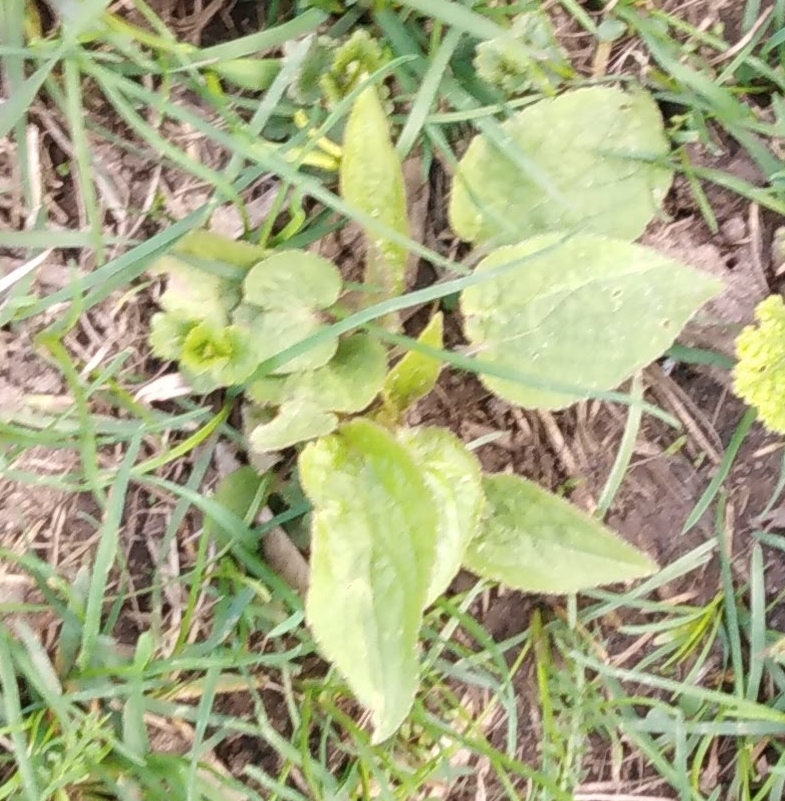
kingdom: Plantae
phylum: Tracheophyta
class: Magnoliopsida
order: Asterales
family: Campanulaceae
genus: Campanula
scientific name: Campanula rapunculoides
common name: Creeping bellflower
